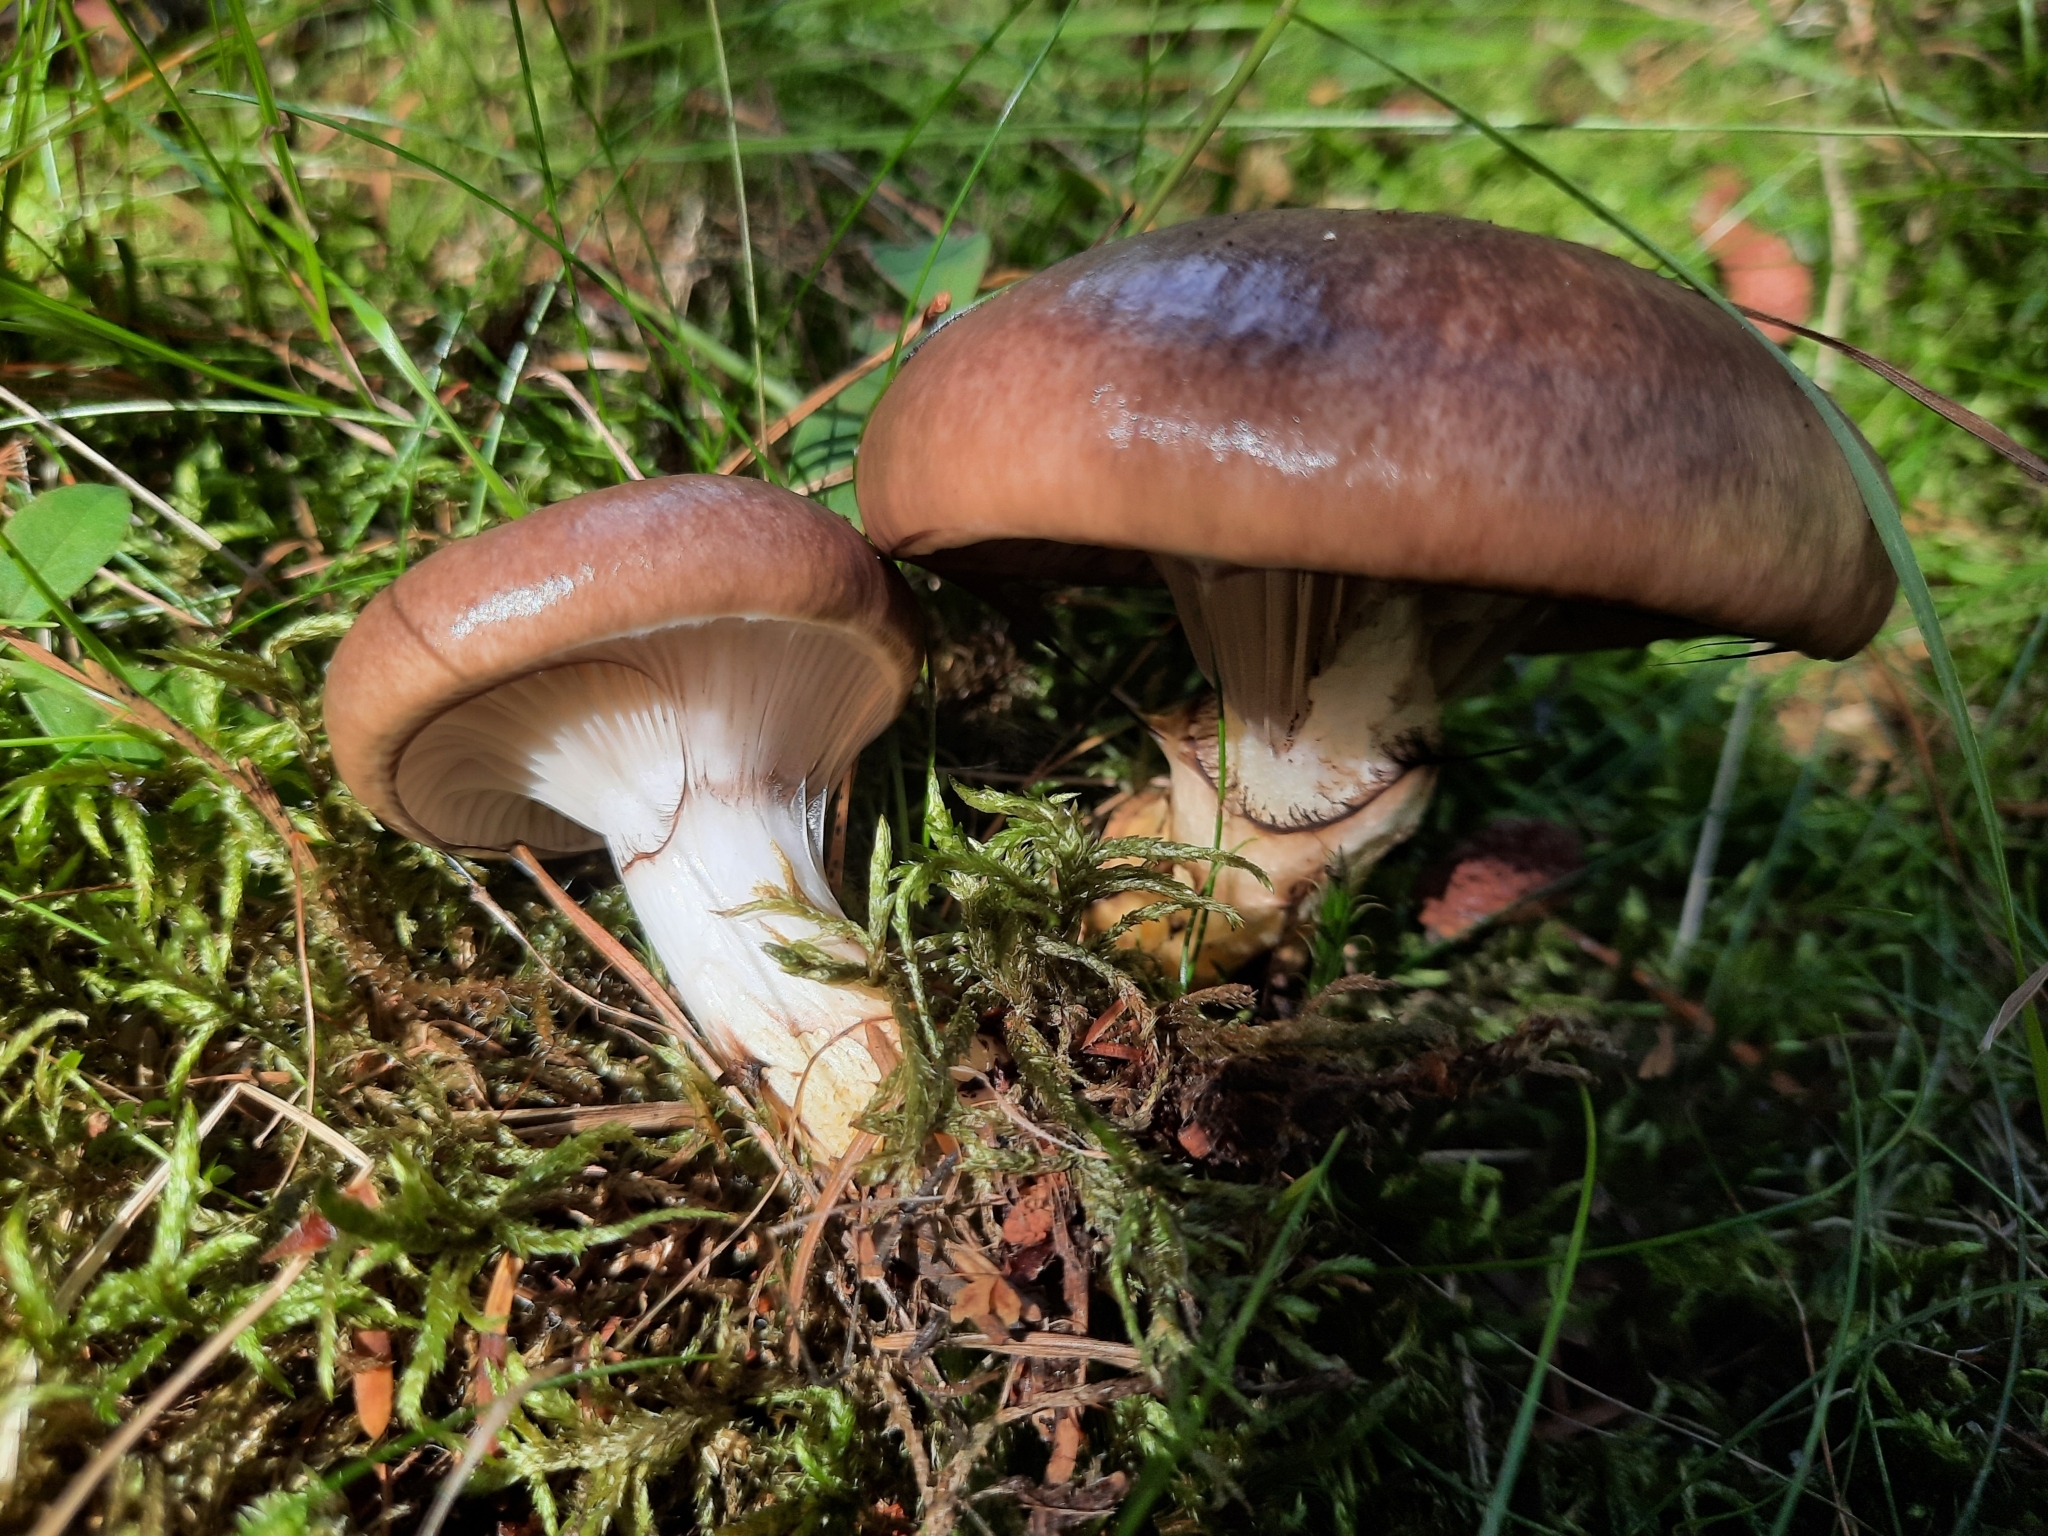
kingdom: Fungi
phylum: Basidiomycota
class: Agaricomycetes
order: Boletales
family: Gomphidiaceae
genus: Gomphidius
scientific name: Gomphidius glutinosus
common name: Slimy spike
